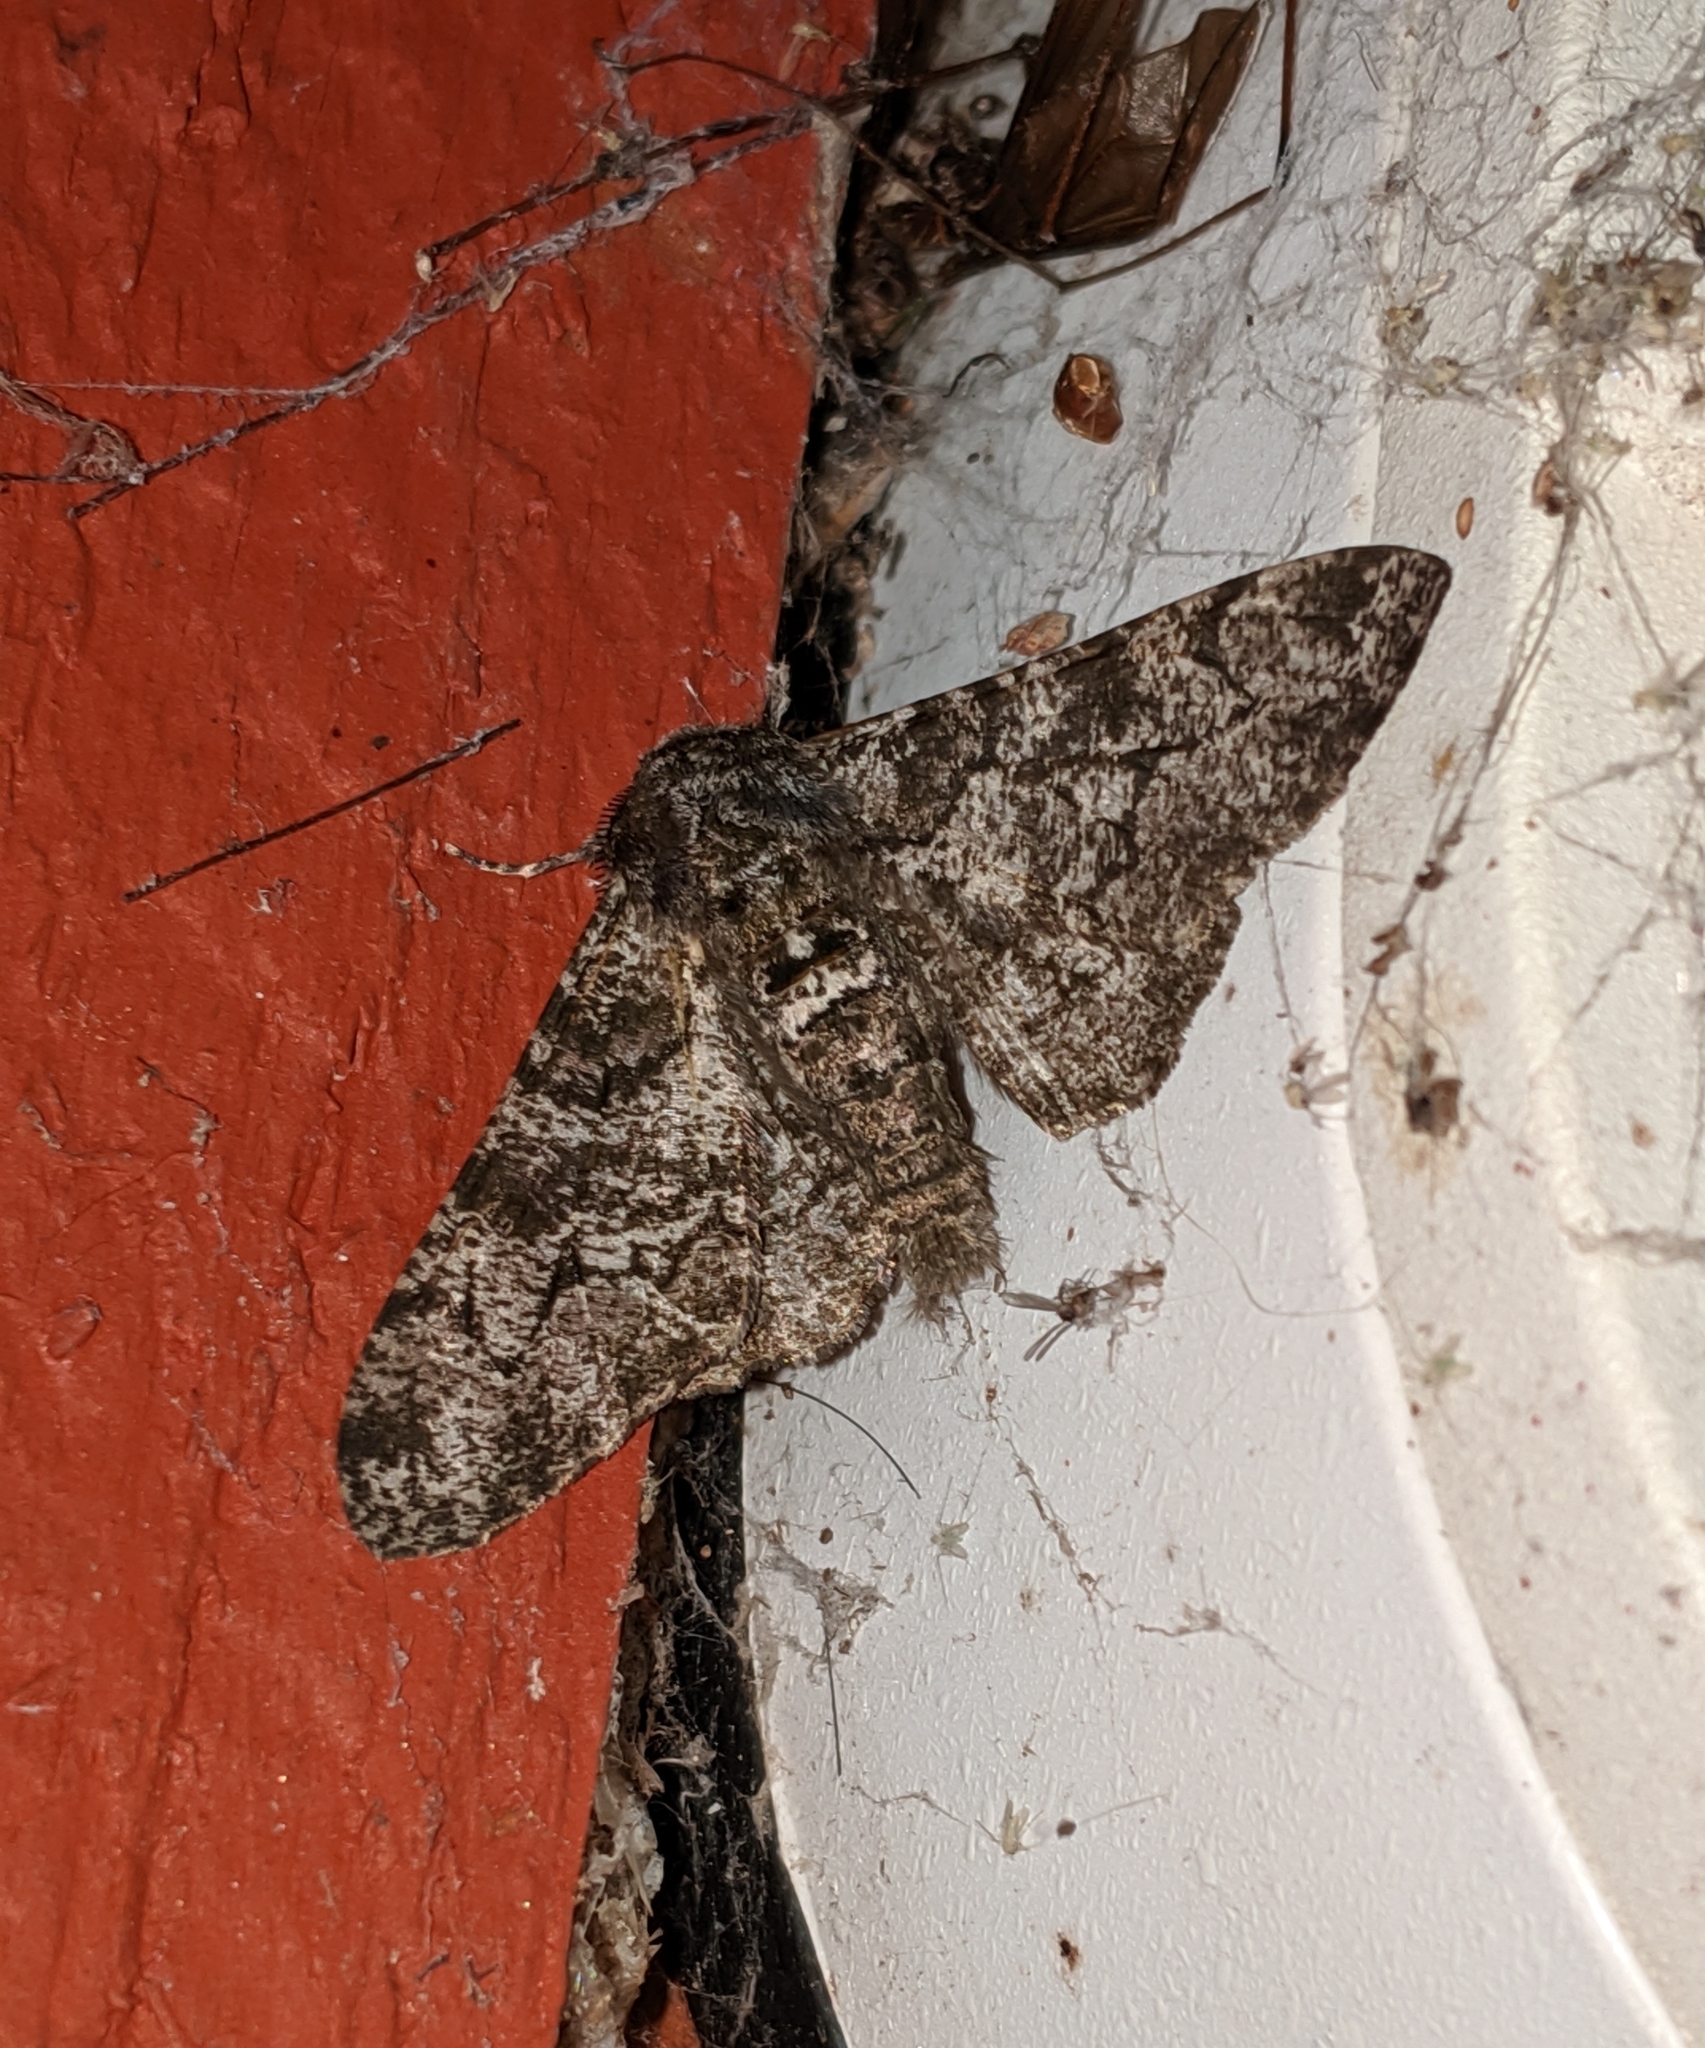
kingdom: Animalia
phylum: Arthropoda
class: Insecta
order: Lepidoptera
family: Geometridae
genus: Biston
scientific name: Biston betularia
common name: Peppered moth
